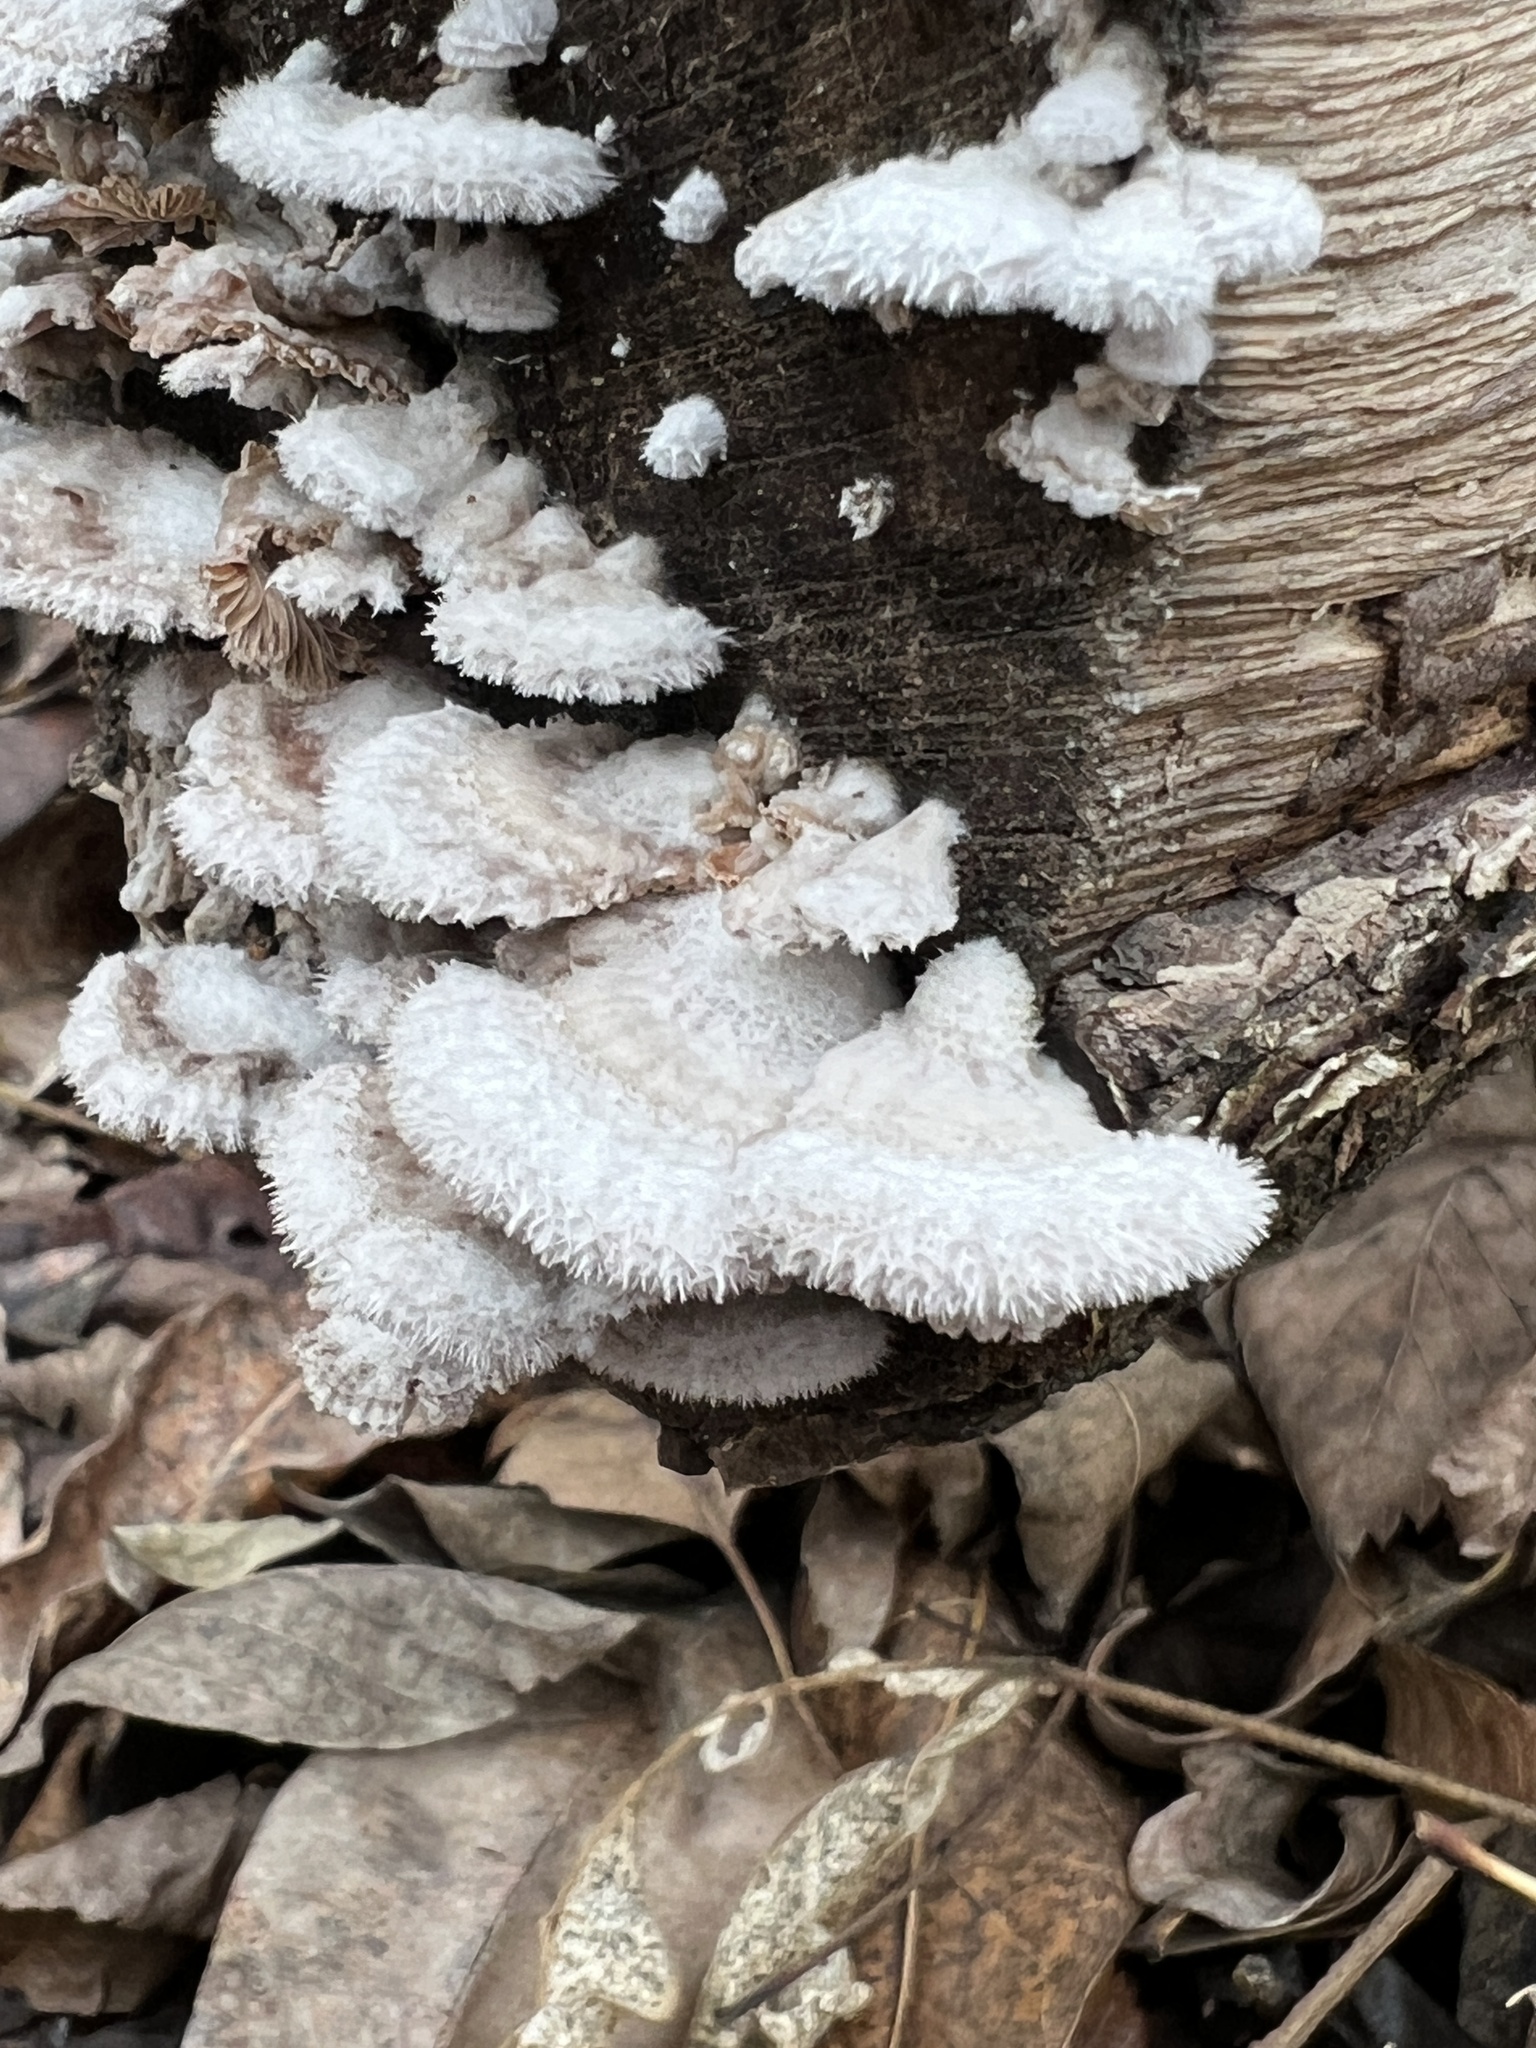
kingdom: Fungi
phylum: Basidiomycota
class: Agaricomycetes
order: Agaricales
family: Schizophyllaceae
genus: Schizophyllum
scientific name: Schizophyllum commune
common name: Common porecrust
